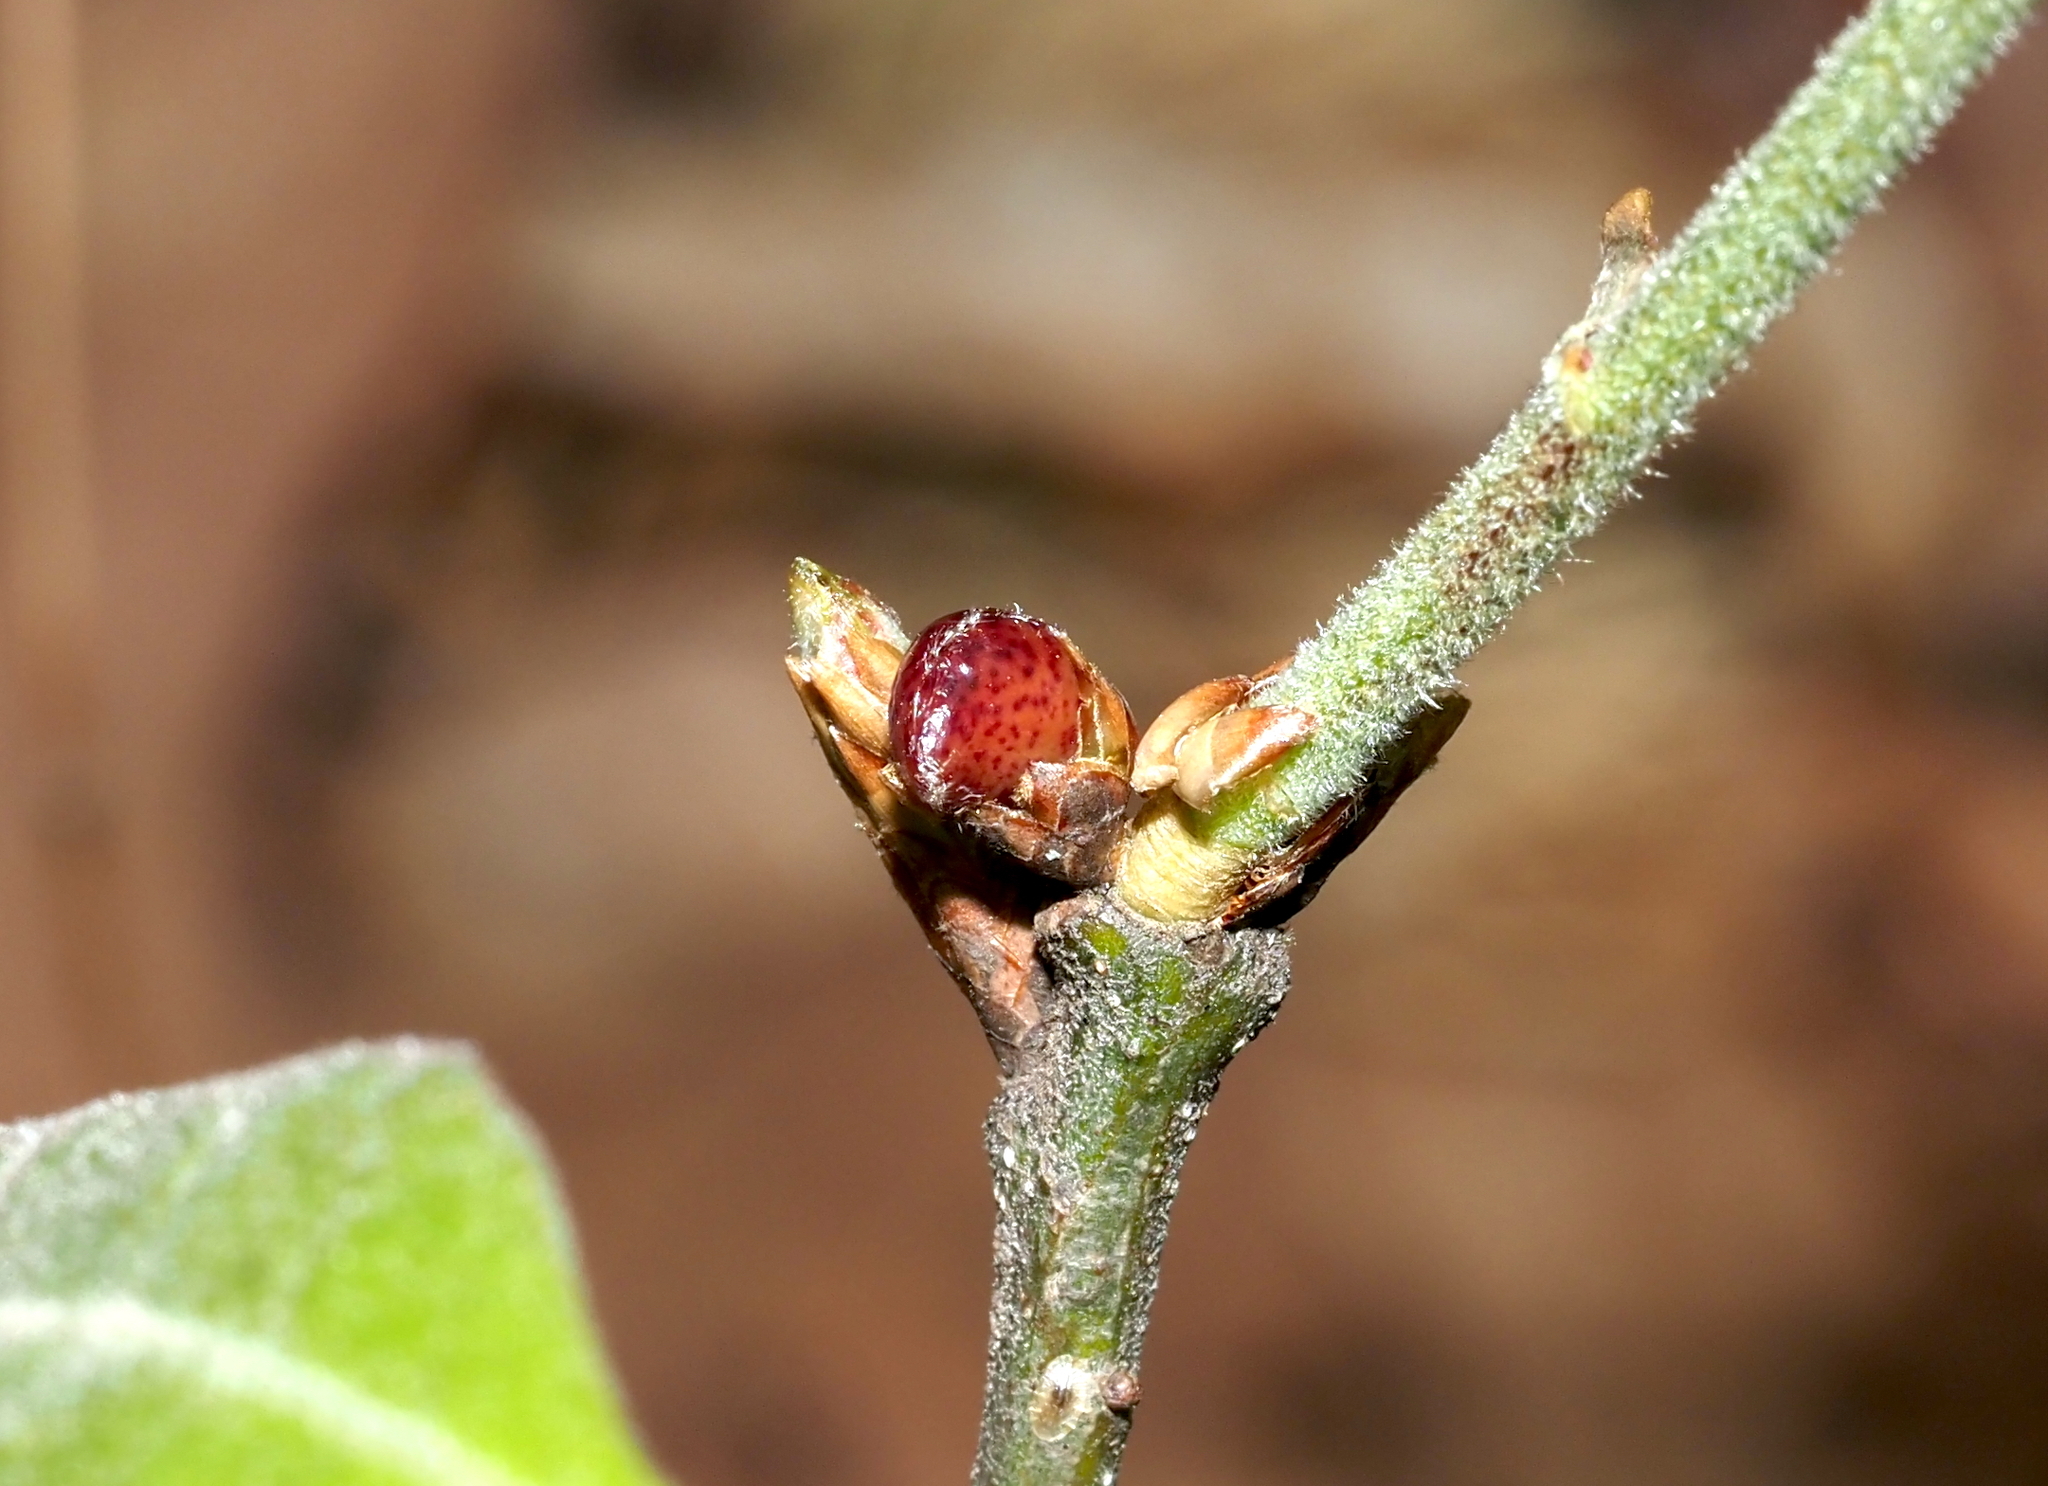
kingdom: Animalia
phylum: Arthropoda
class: Insecta
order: Hymenoptera
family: Cynipidae
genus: Amphibolips
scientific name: Amphibolips
